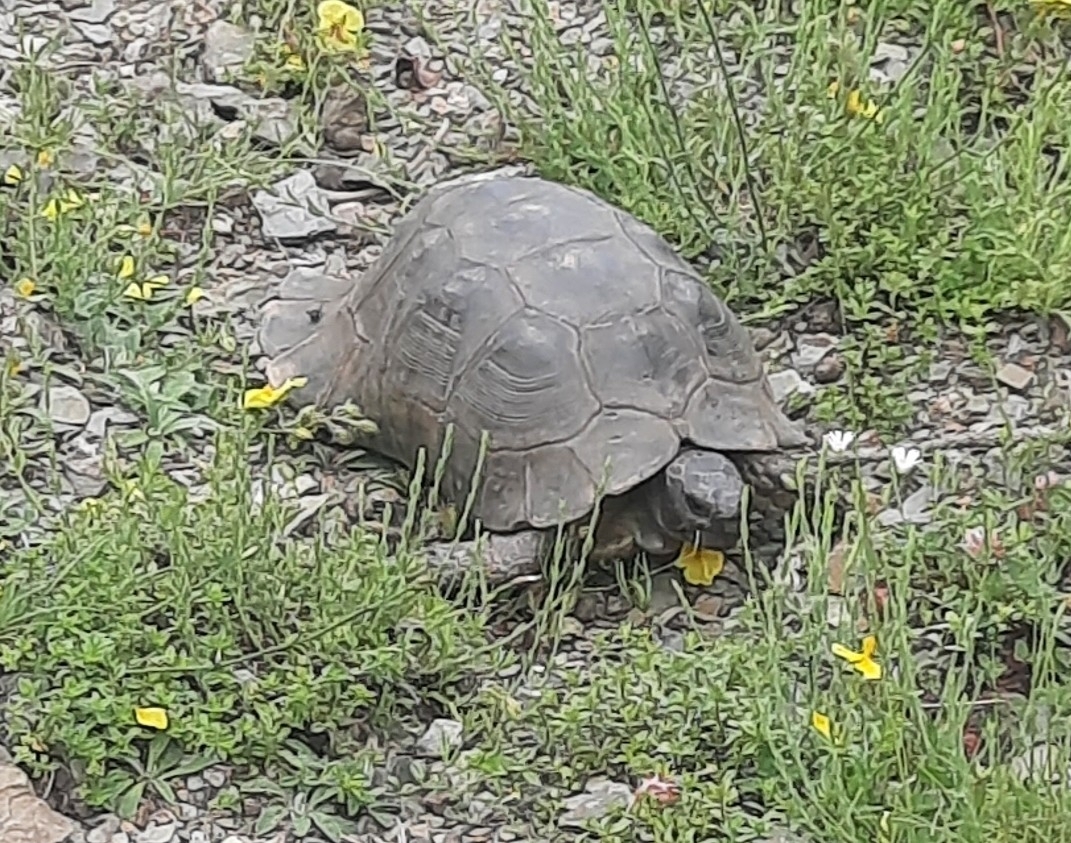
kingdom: Animalia
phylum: Chordata
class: Testudines
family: Testudinidae
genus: Testudo
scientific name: Testudo marginata
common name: Marginated tortoise
